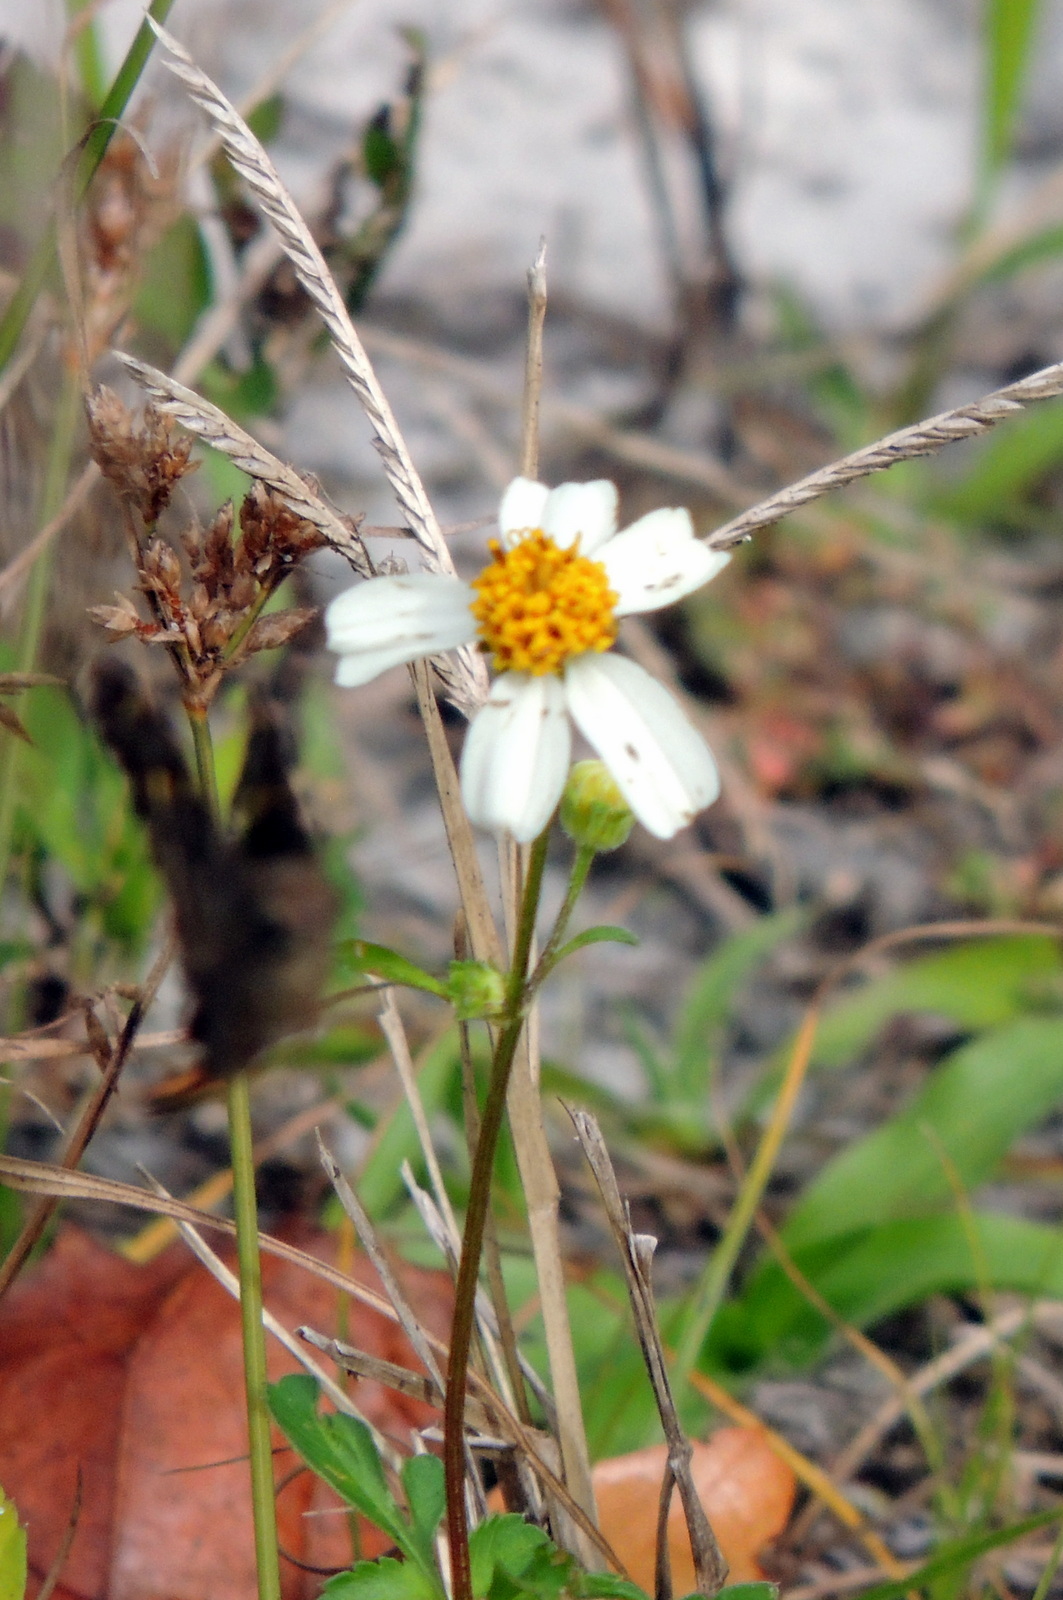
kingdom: Plantae
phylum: Tracheophyta
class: Magnoliopsida
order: Asterales
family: Asteraceae
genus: Bidens
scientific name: Bidens alba
